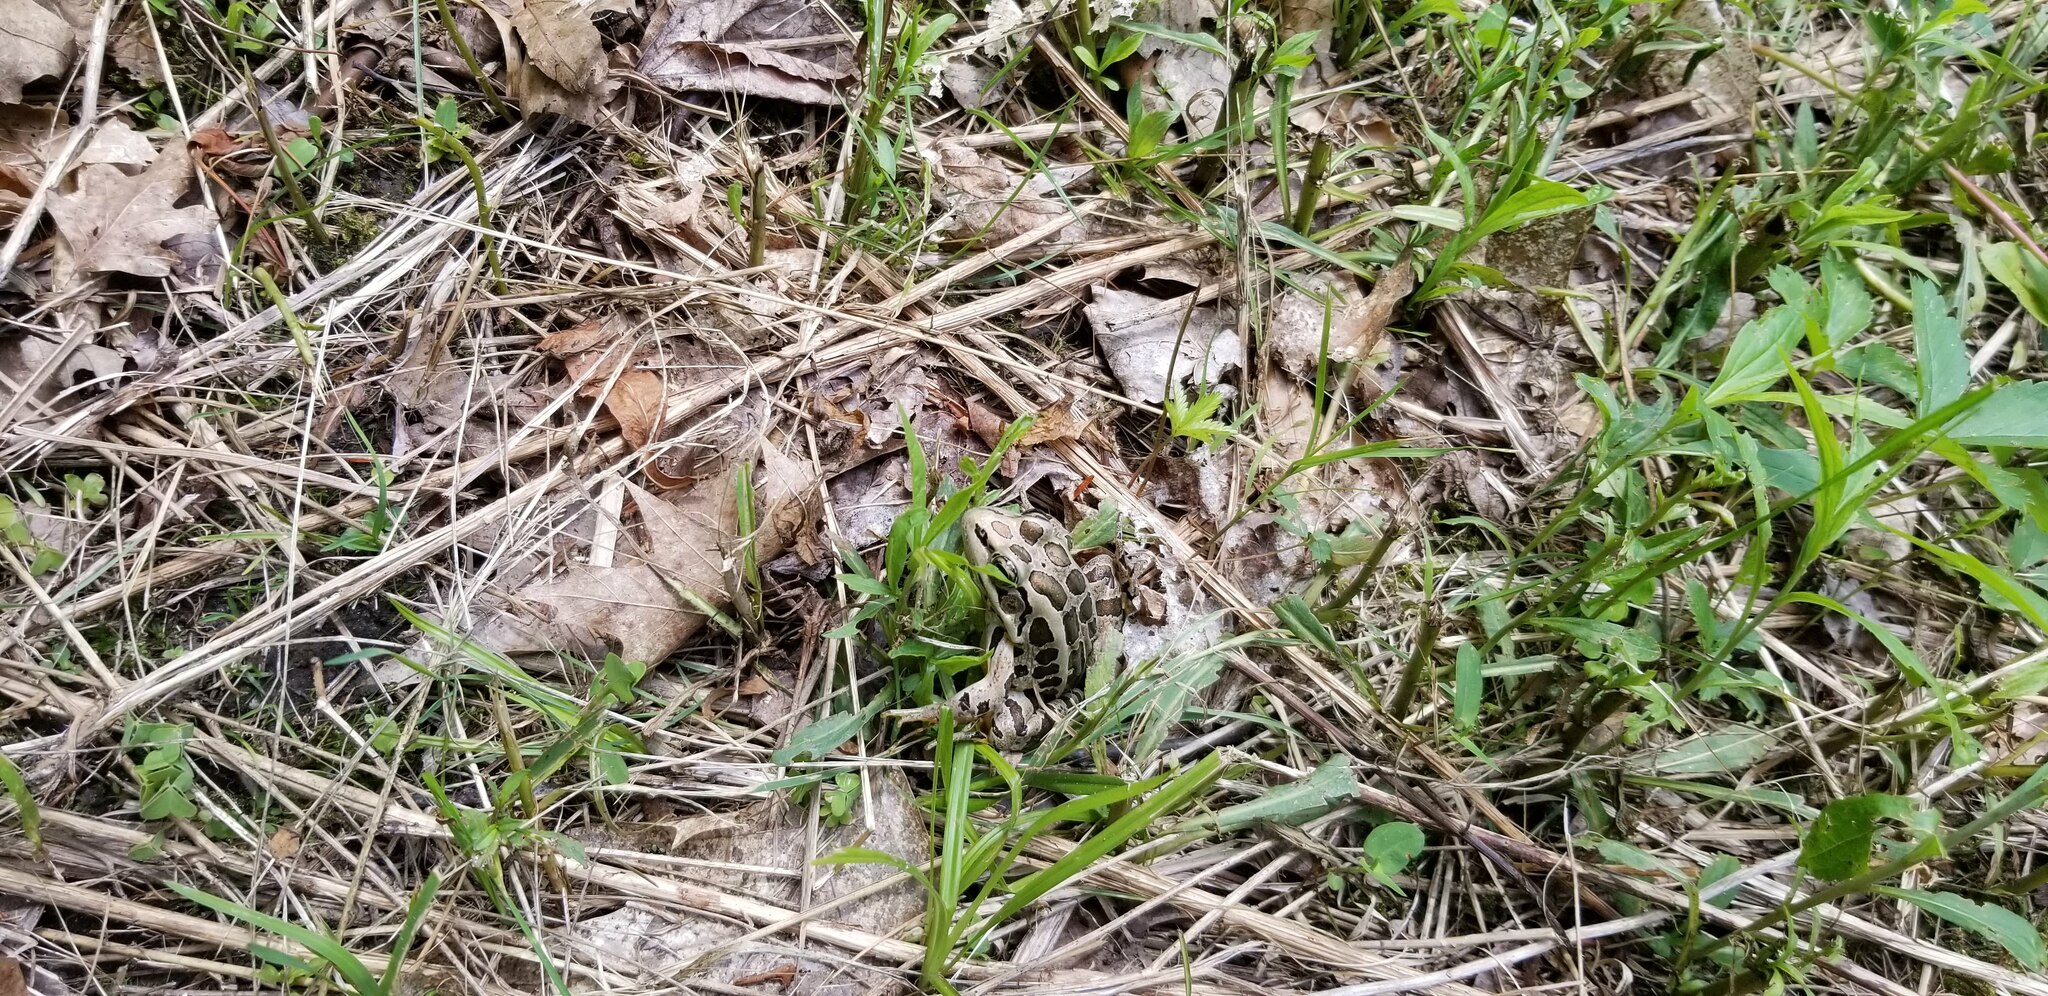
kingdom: Animalia
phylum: Chordata
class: Amphibia
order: Anura
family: Ranidae
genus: Lithobates
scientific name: Lithobates palustris
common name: Pickerel frog
